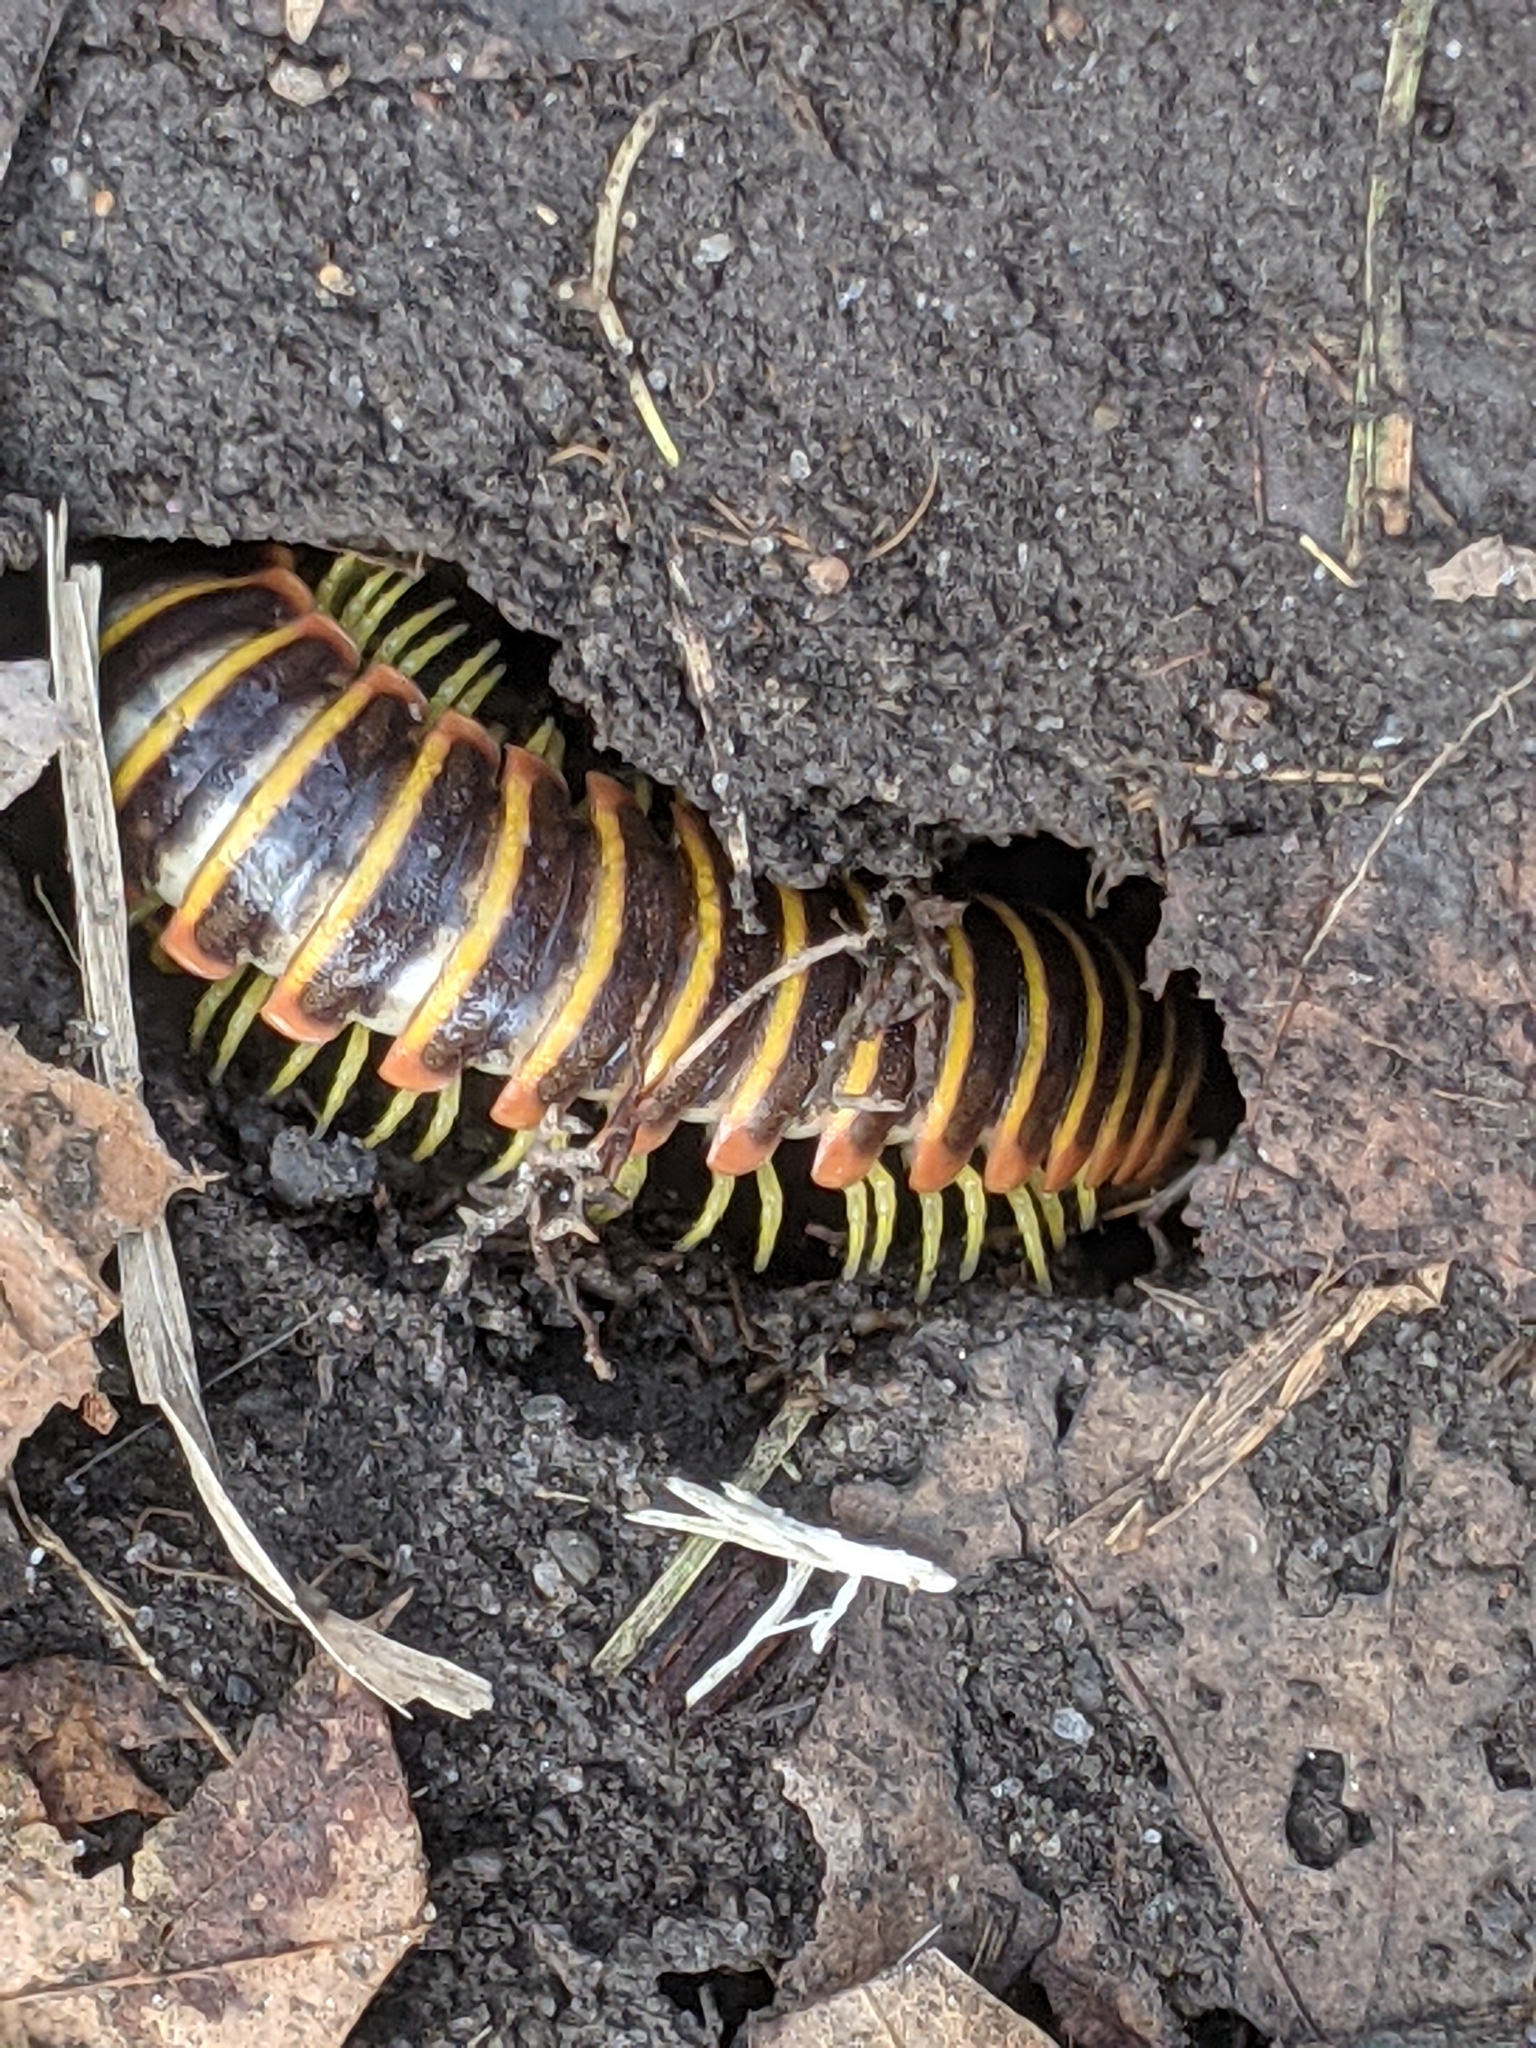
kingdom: Animalia
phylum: Arthropoda
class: Diplopoda
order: Polydesmida
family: Xystodesmidae
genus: Apheloria
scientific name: Apheloria virginiensis
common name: Black-and-gold flat millipede
